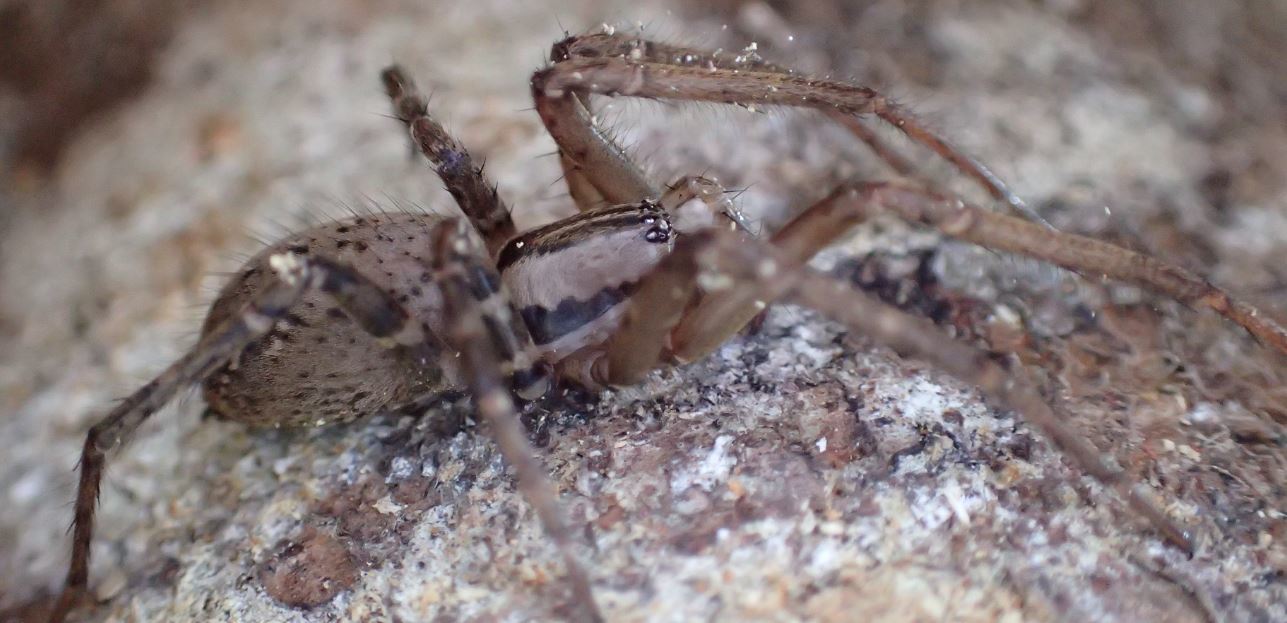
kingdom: Animalia
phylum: Arthropoda
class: Arachnida
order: Araneae
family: Desidae
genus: Cambridgea
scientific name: Cambridgea
